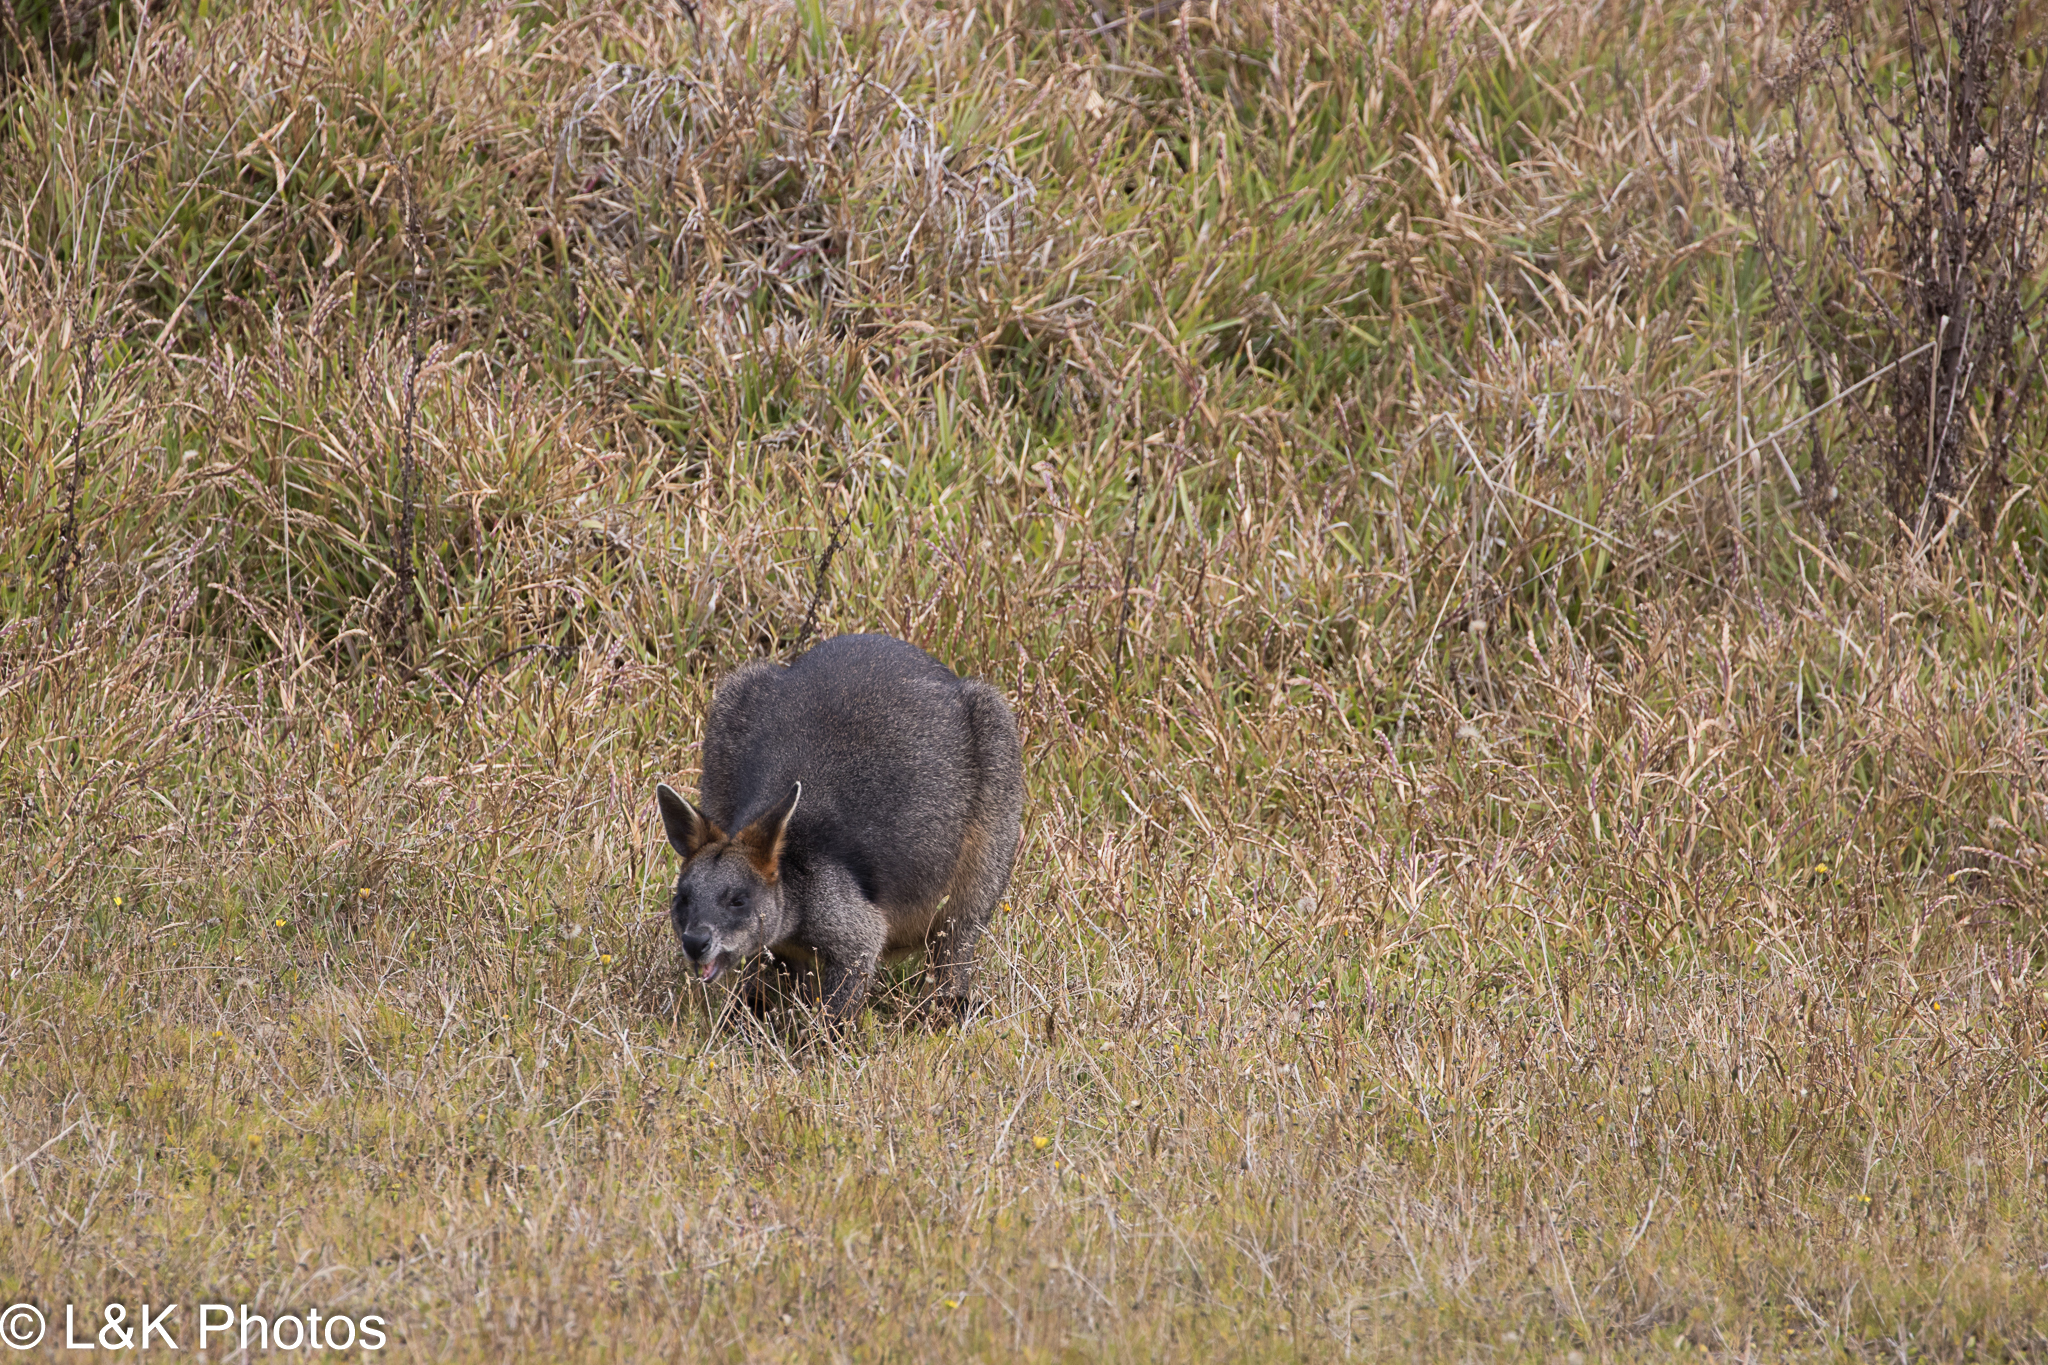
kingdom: Animalia
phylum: Chordata
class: Mammalia
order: Diprotodontia
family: Macropodidae
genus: Wallabia
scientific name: Wallabia bicolor
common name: Swamp wallaby
